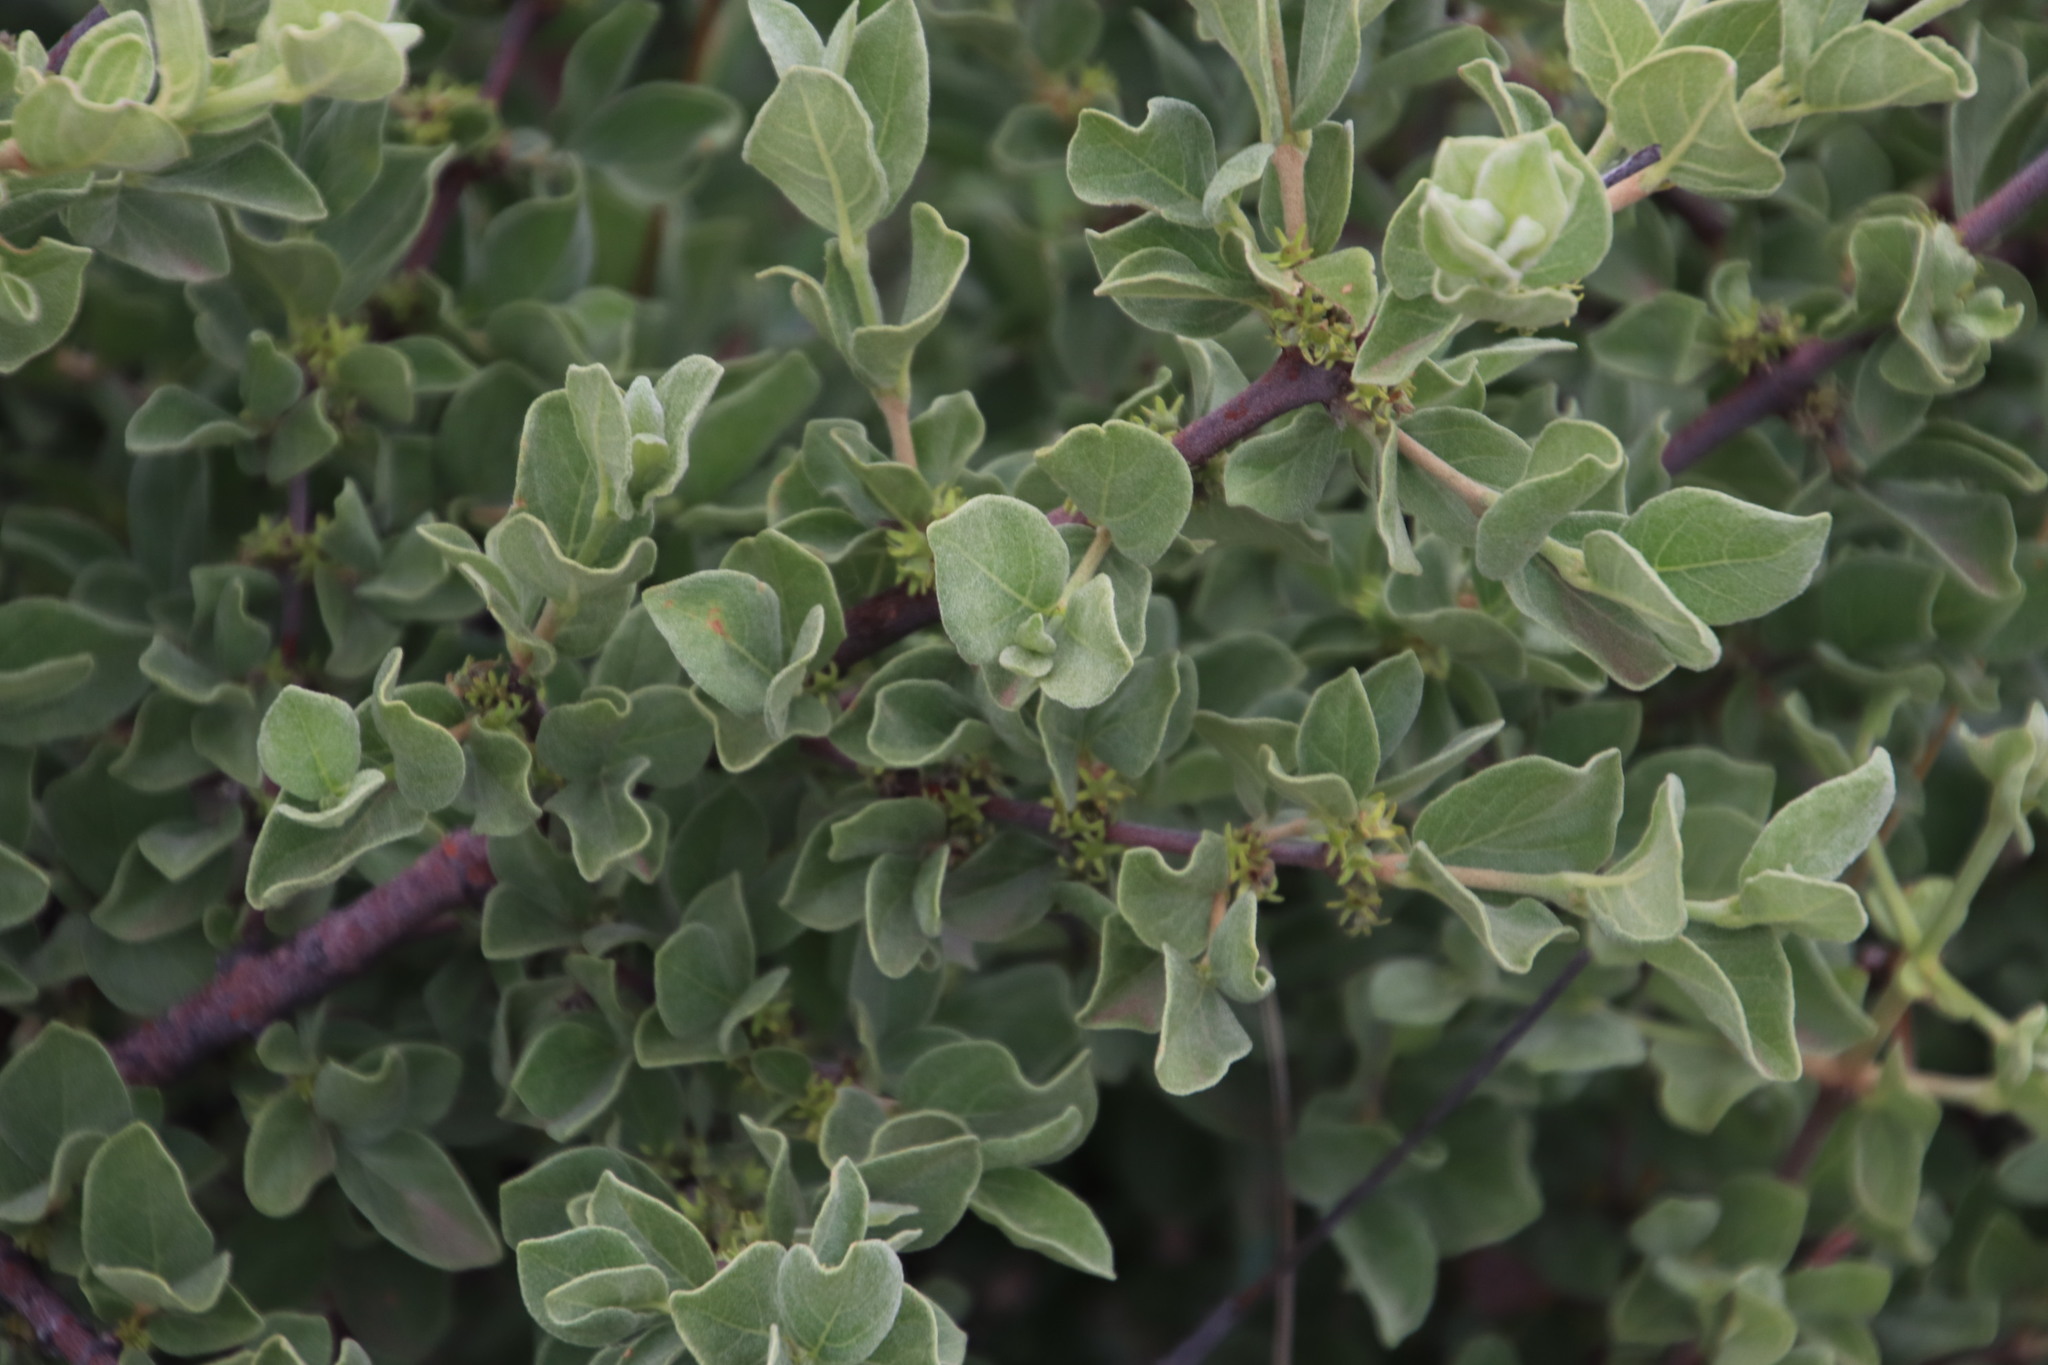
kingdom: Plantae
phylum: Tracheophyta
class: Magnoliopsida
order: Gentianales
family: Rubiaceae
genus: Vangueria
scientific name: Vangueria parvifolia
